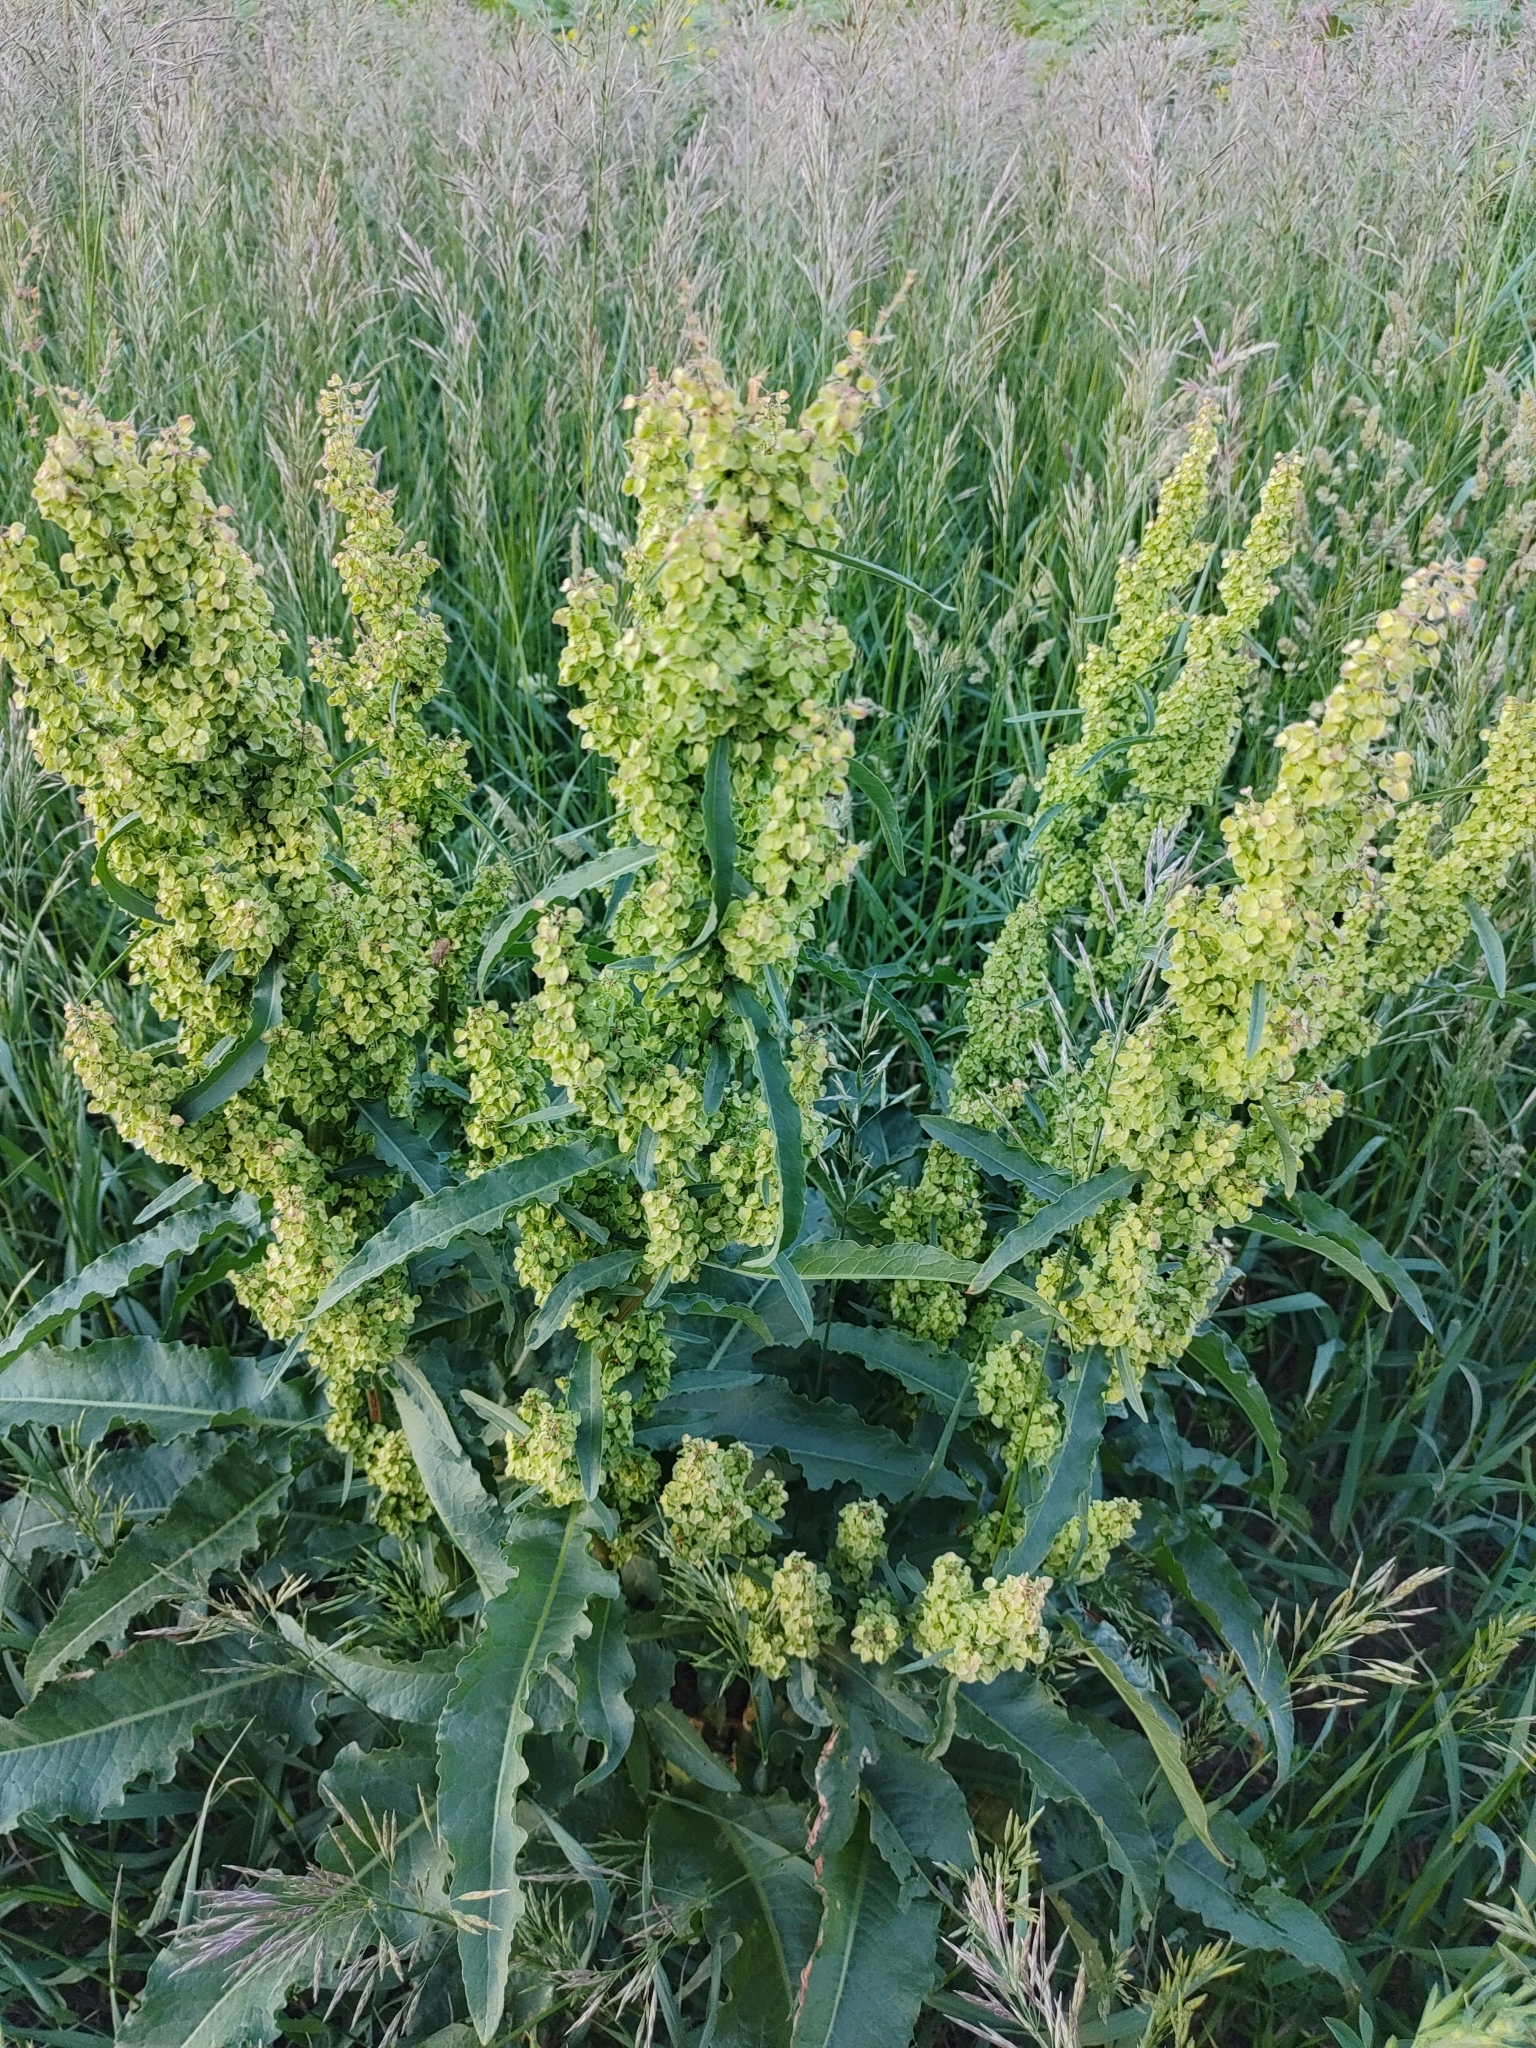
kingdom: Plantae
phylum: Tracheophyta
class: Magnoliopsida
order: Caryophyllales
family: Polygonaceae
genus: Rumex
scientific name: Rumex crispus
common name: Curled dock
